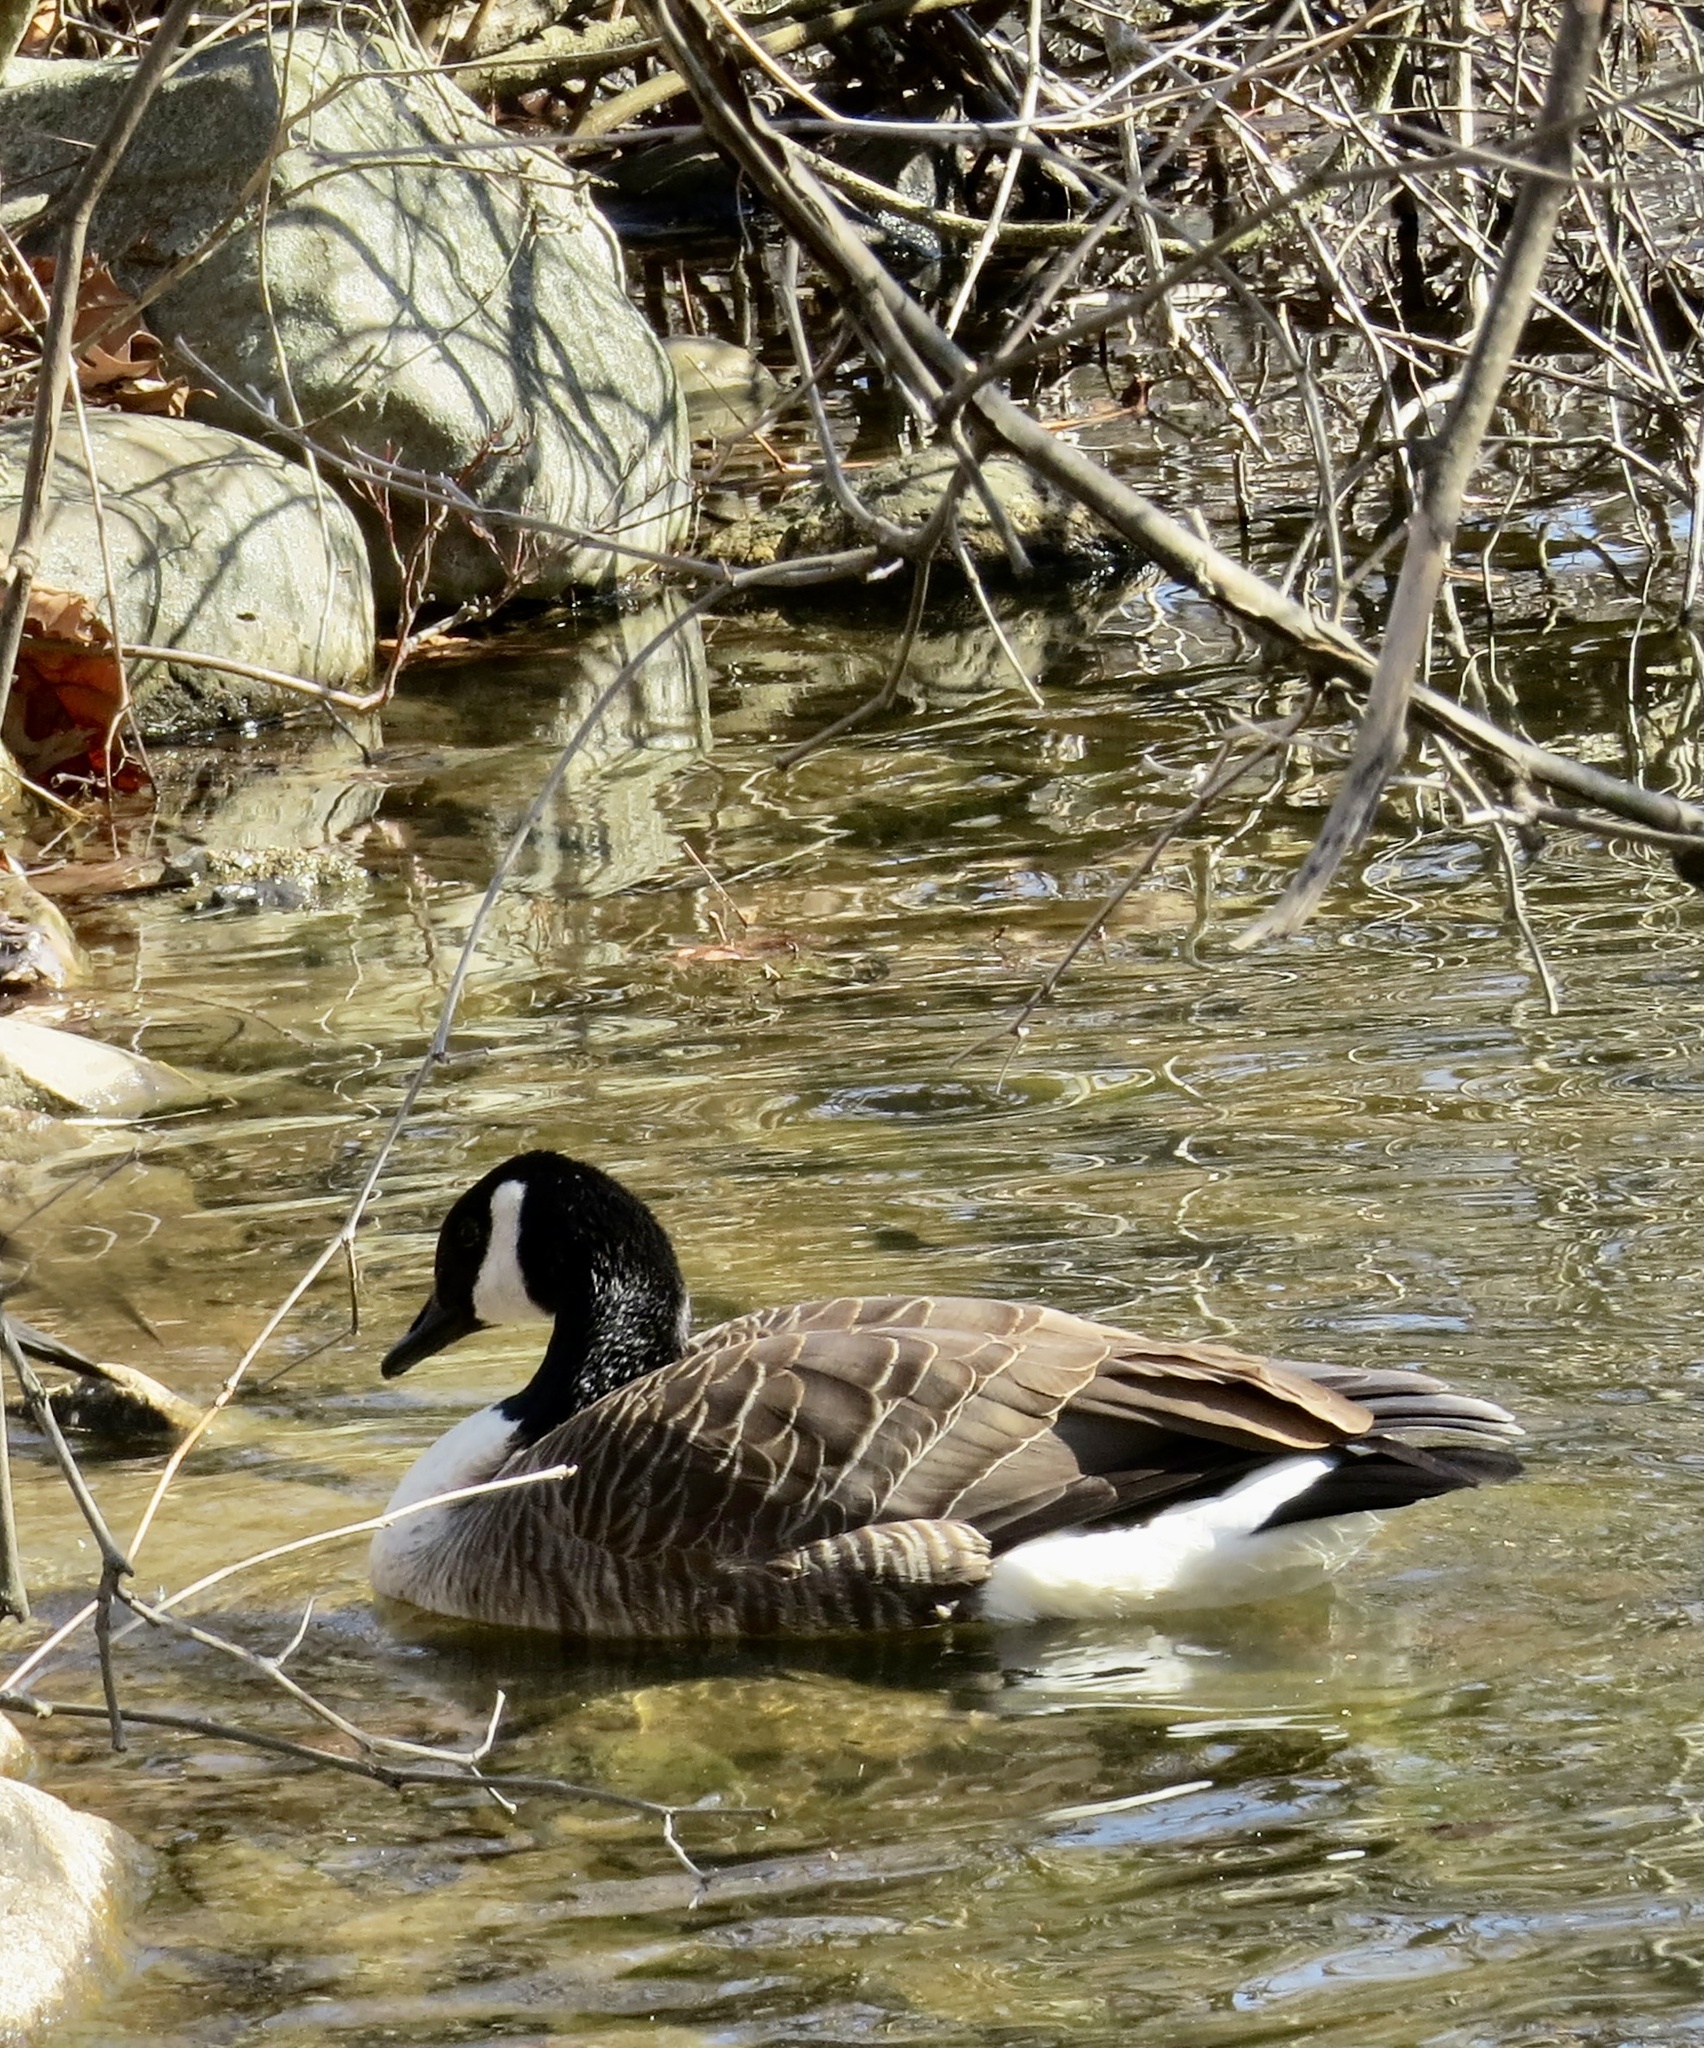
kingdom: Animalia
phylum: Chordata
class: Aves
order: Anseriformes
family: Anatidae
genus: Branta
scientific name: Branta canadensis
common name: Canada goose
